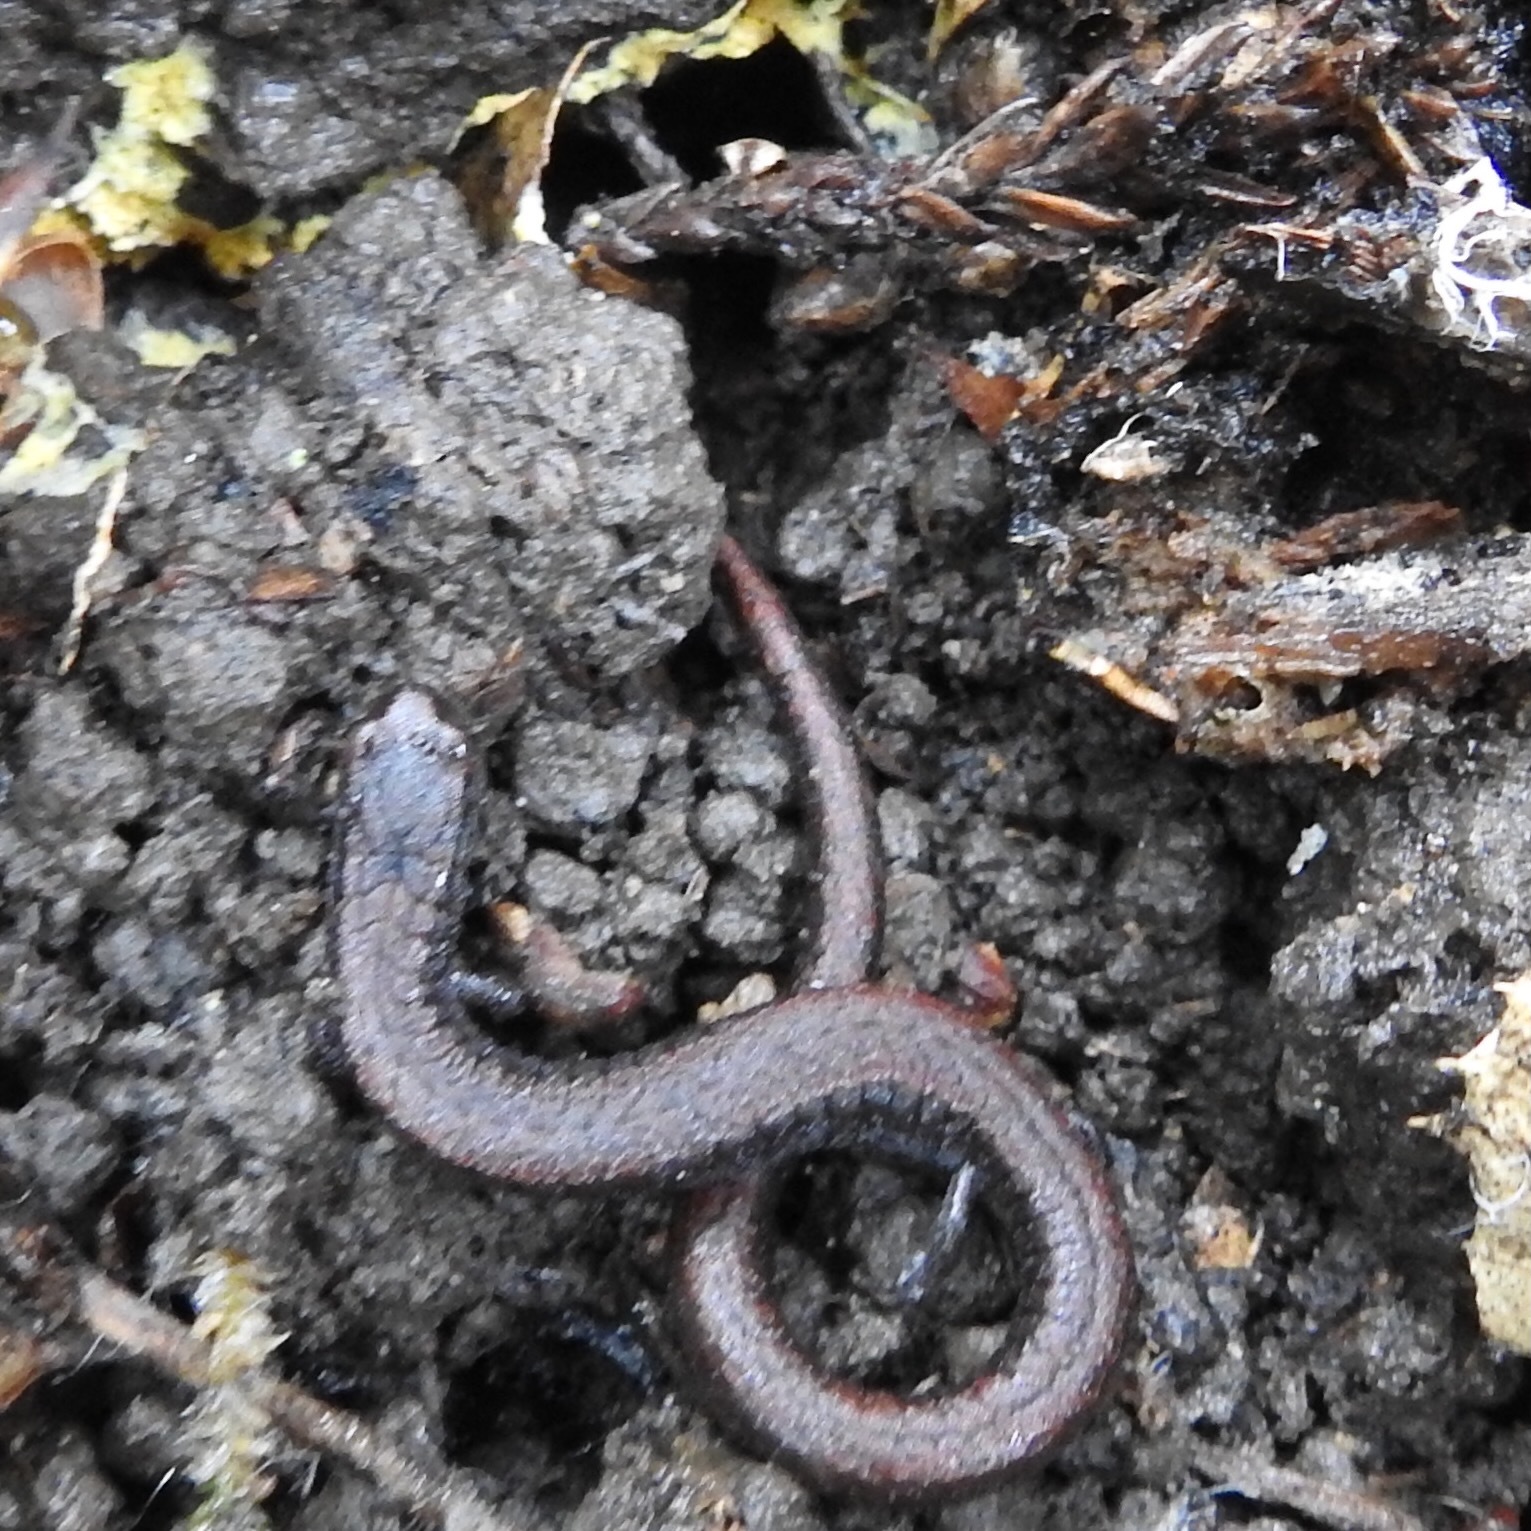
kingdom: Animalia
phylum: Chordata
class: Amphibia
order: Caudata
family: Plethodontidae
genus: Batrachoseps
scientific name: Batrachoseps attenuatus
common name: California slender salamander
